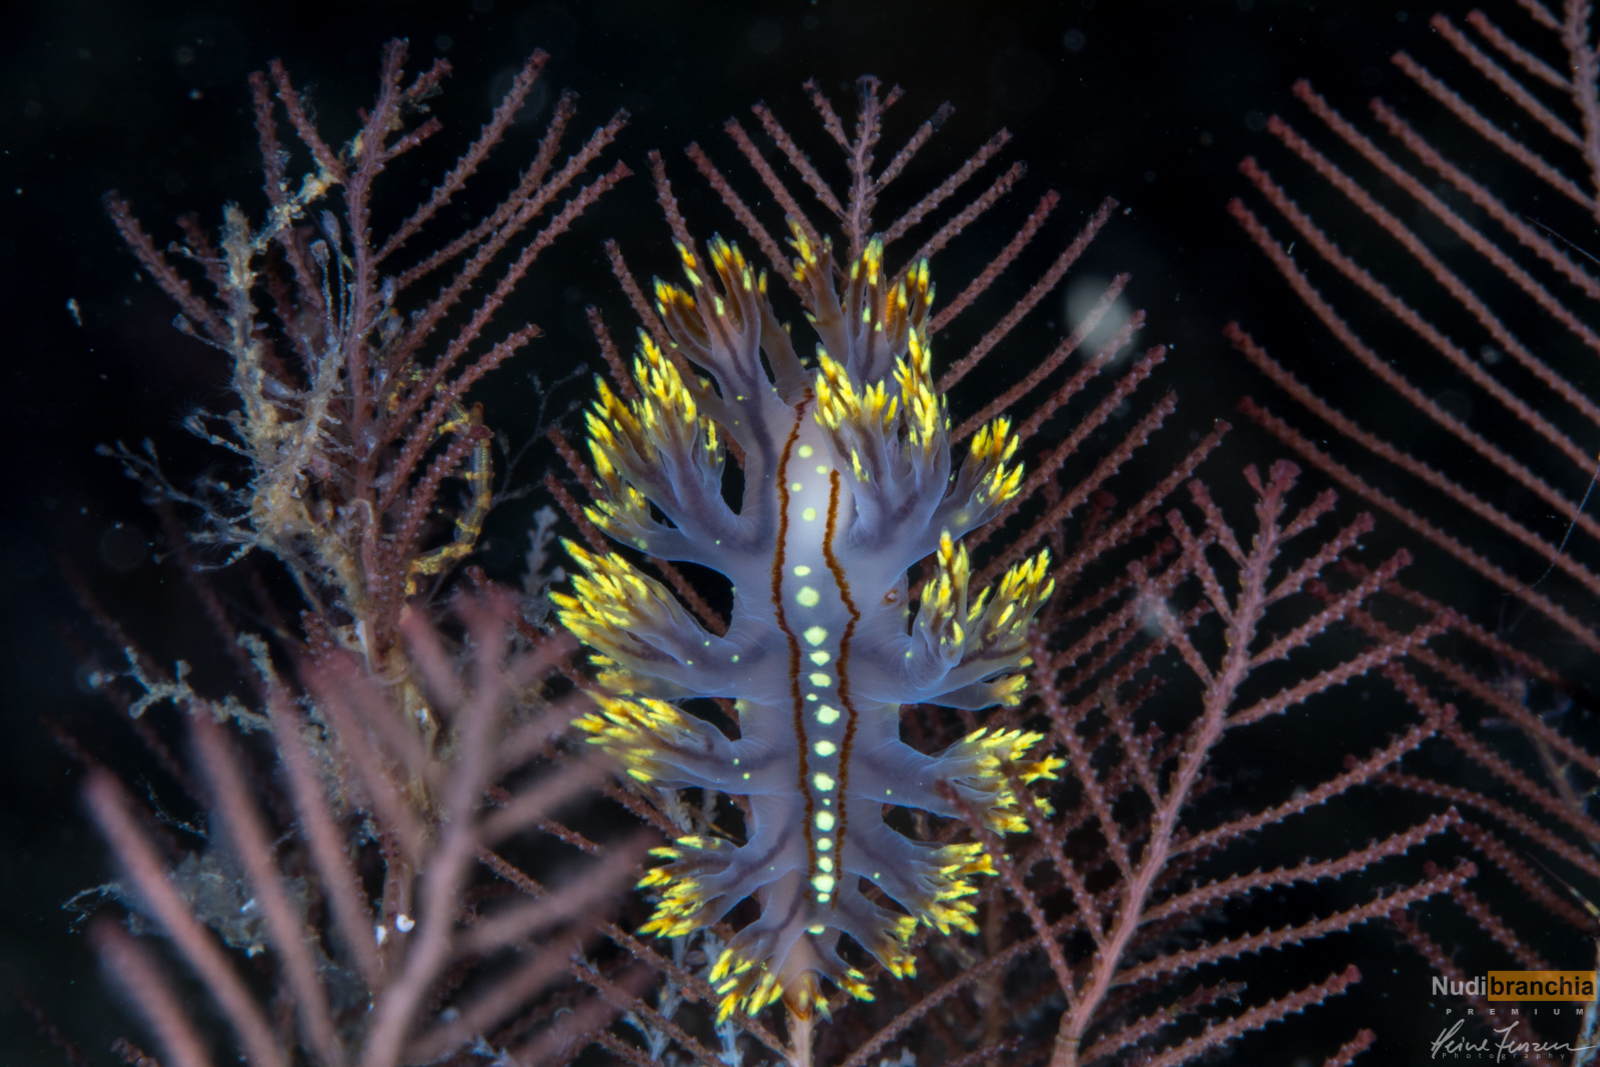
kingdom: Animalia
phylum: Mollusca
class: Gastropoda
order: Nudibranchia
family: Dendronotidae
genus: Dendronotus
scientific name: Dendronotus yrjargul
